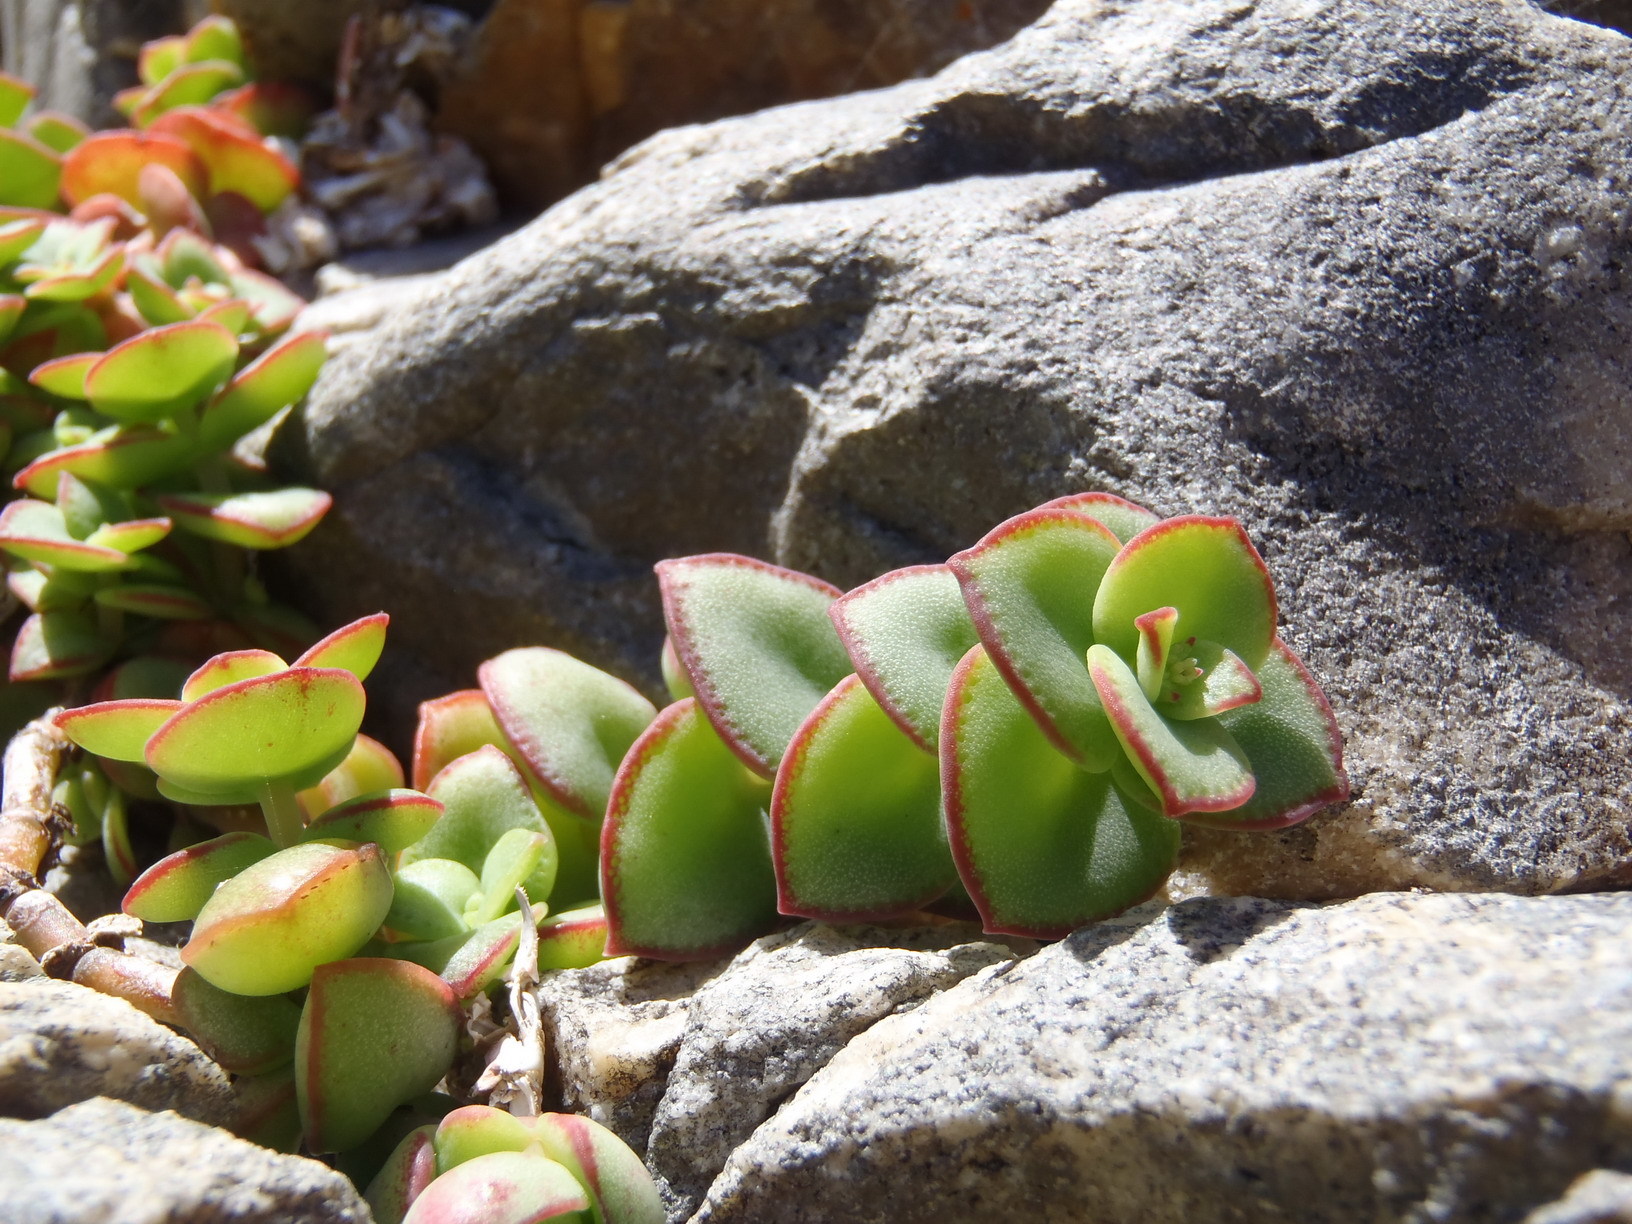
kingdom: Plantae
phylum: Tracheophyta
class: Magnoliopsida
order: Saxifragales
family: Crassulaceae
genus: Crassula
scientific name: Crassula pellucida
